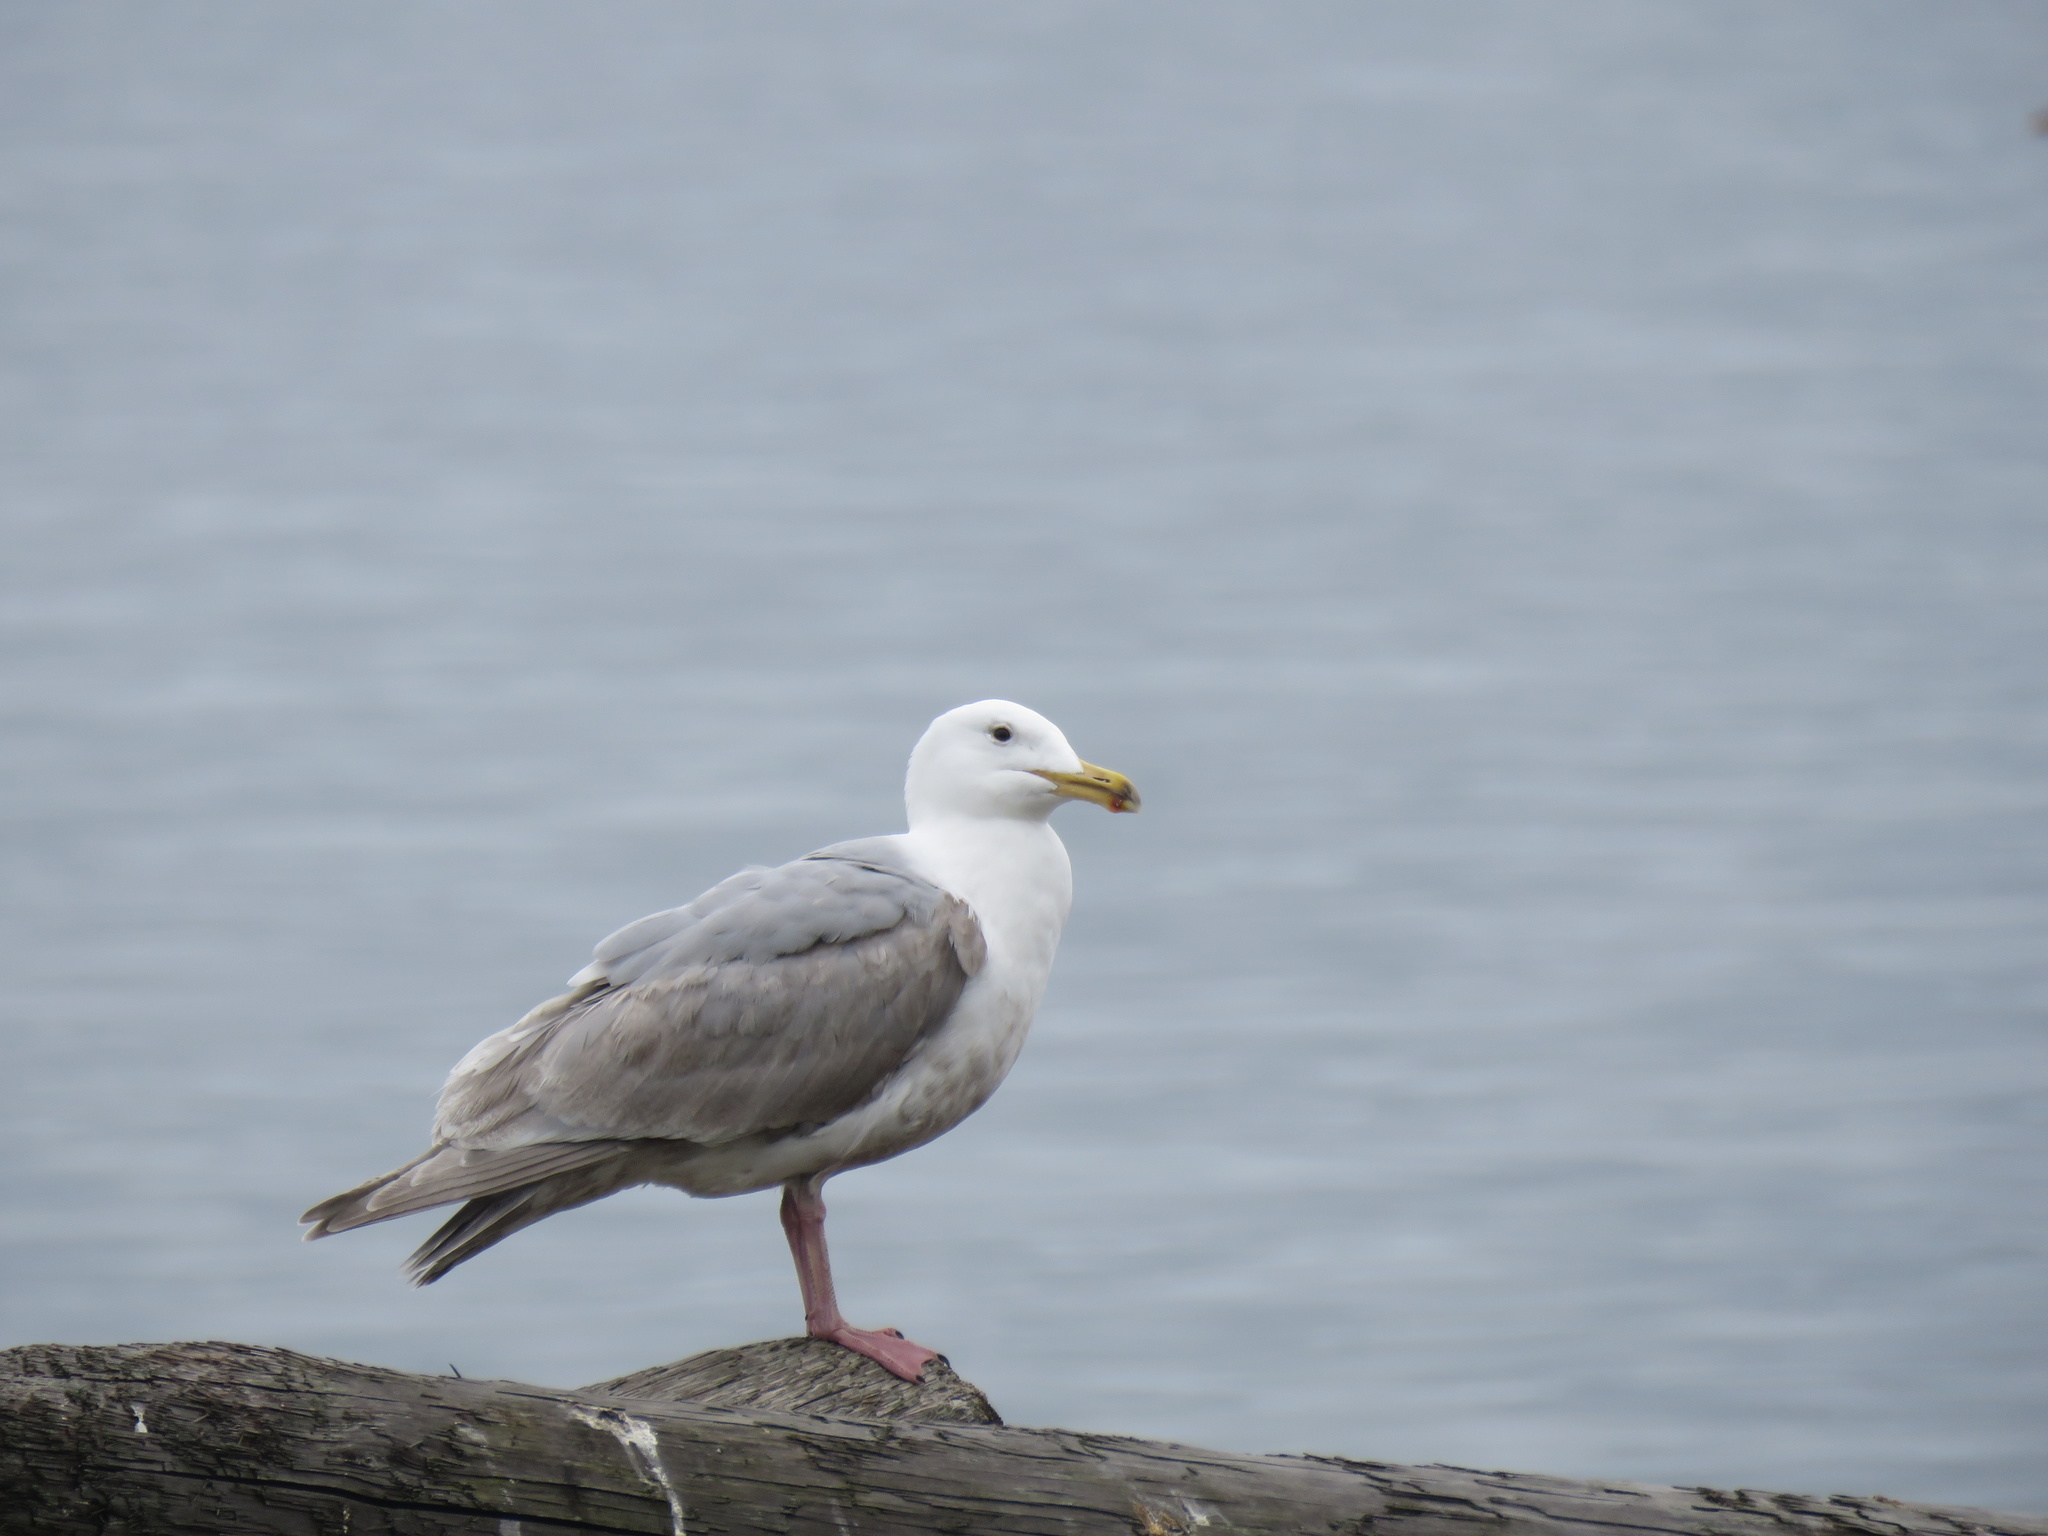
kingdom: Animalia
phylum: Chordata
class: Aves
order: Charadriiformes
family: Laridae
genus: Larus
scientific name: Larus
